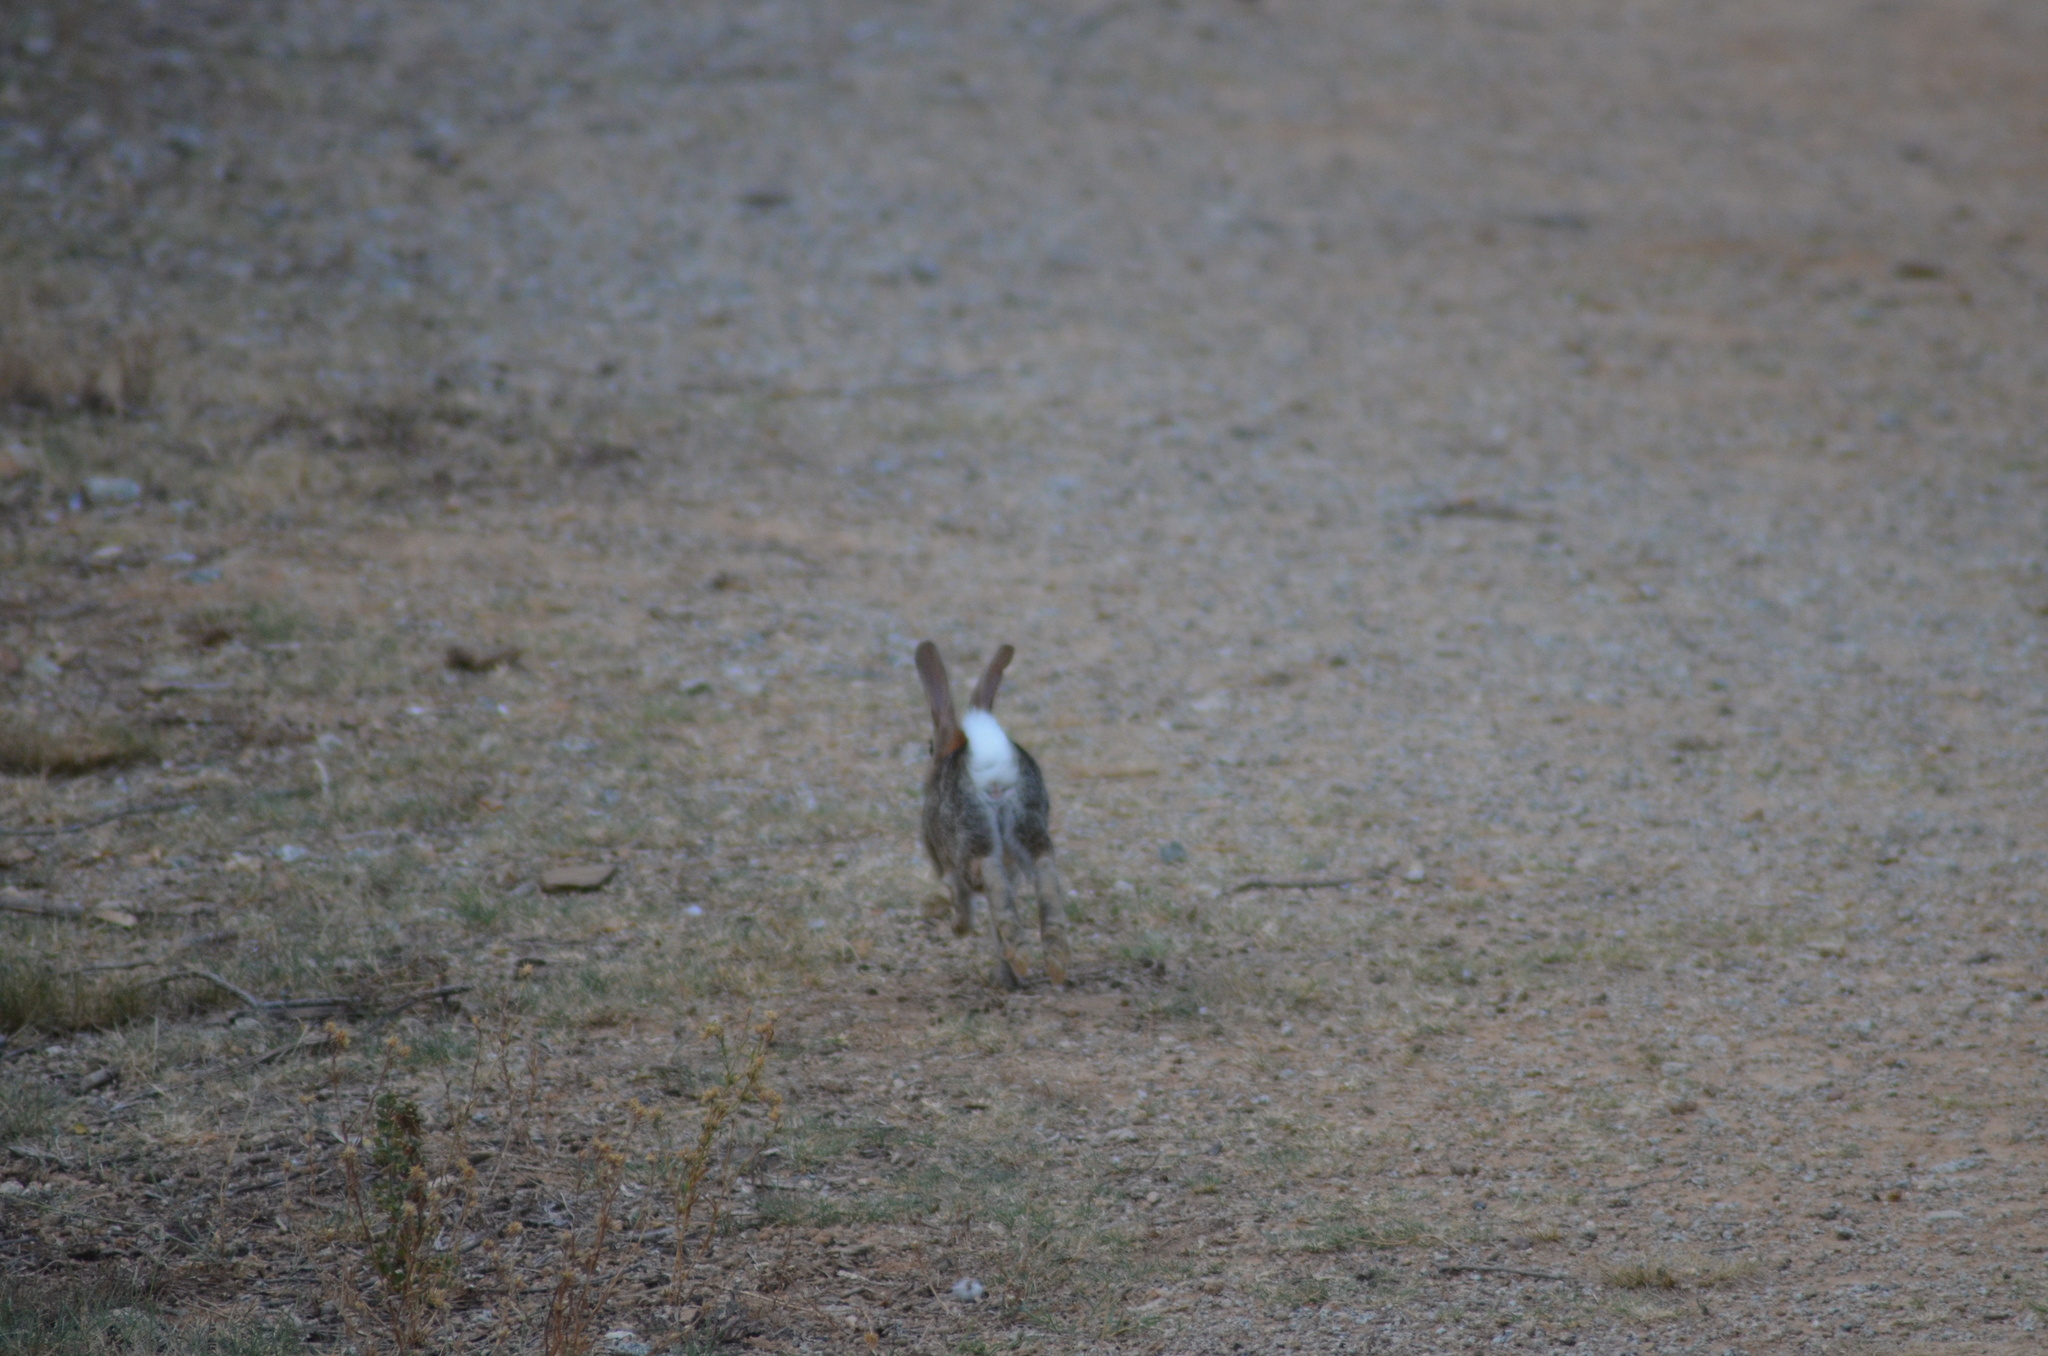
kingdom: Animalia
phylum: Chordata
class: Mammalia
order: Lagomorpha
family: Leporidae
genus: Oryctolagus
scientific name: Oryctolagus cuniculus
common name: European rabbit
